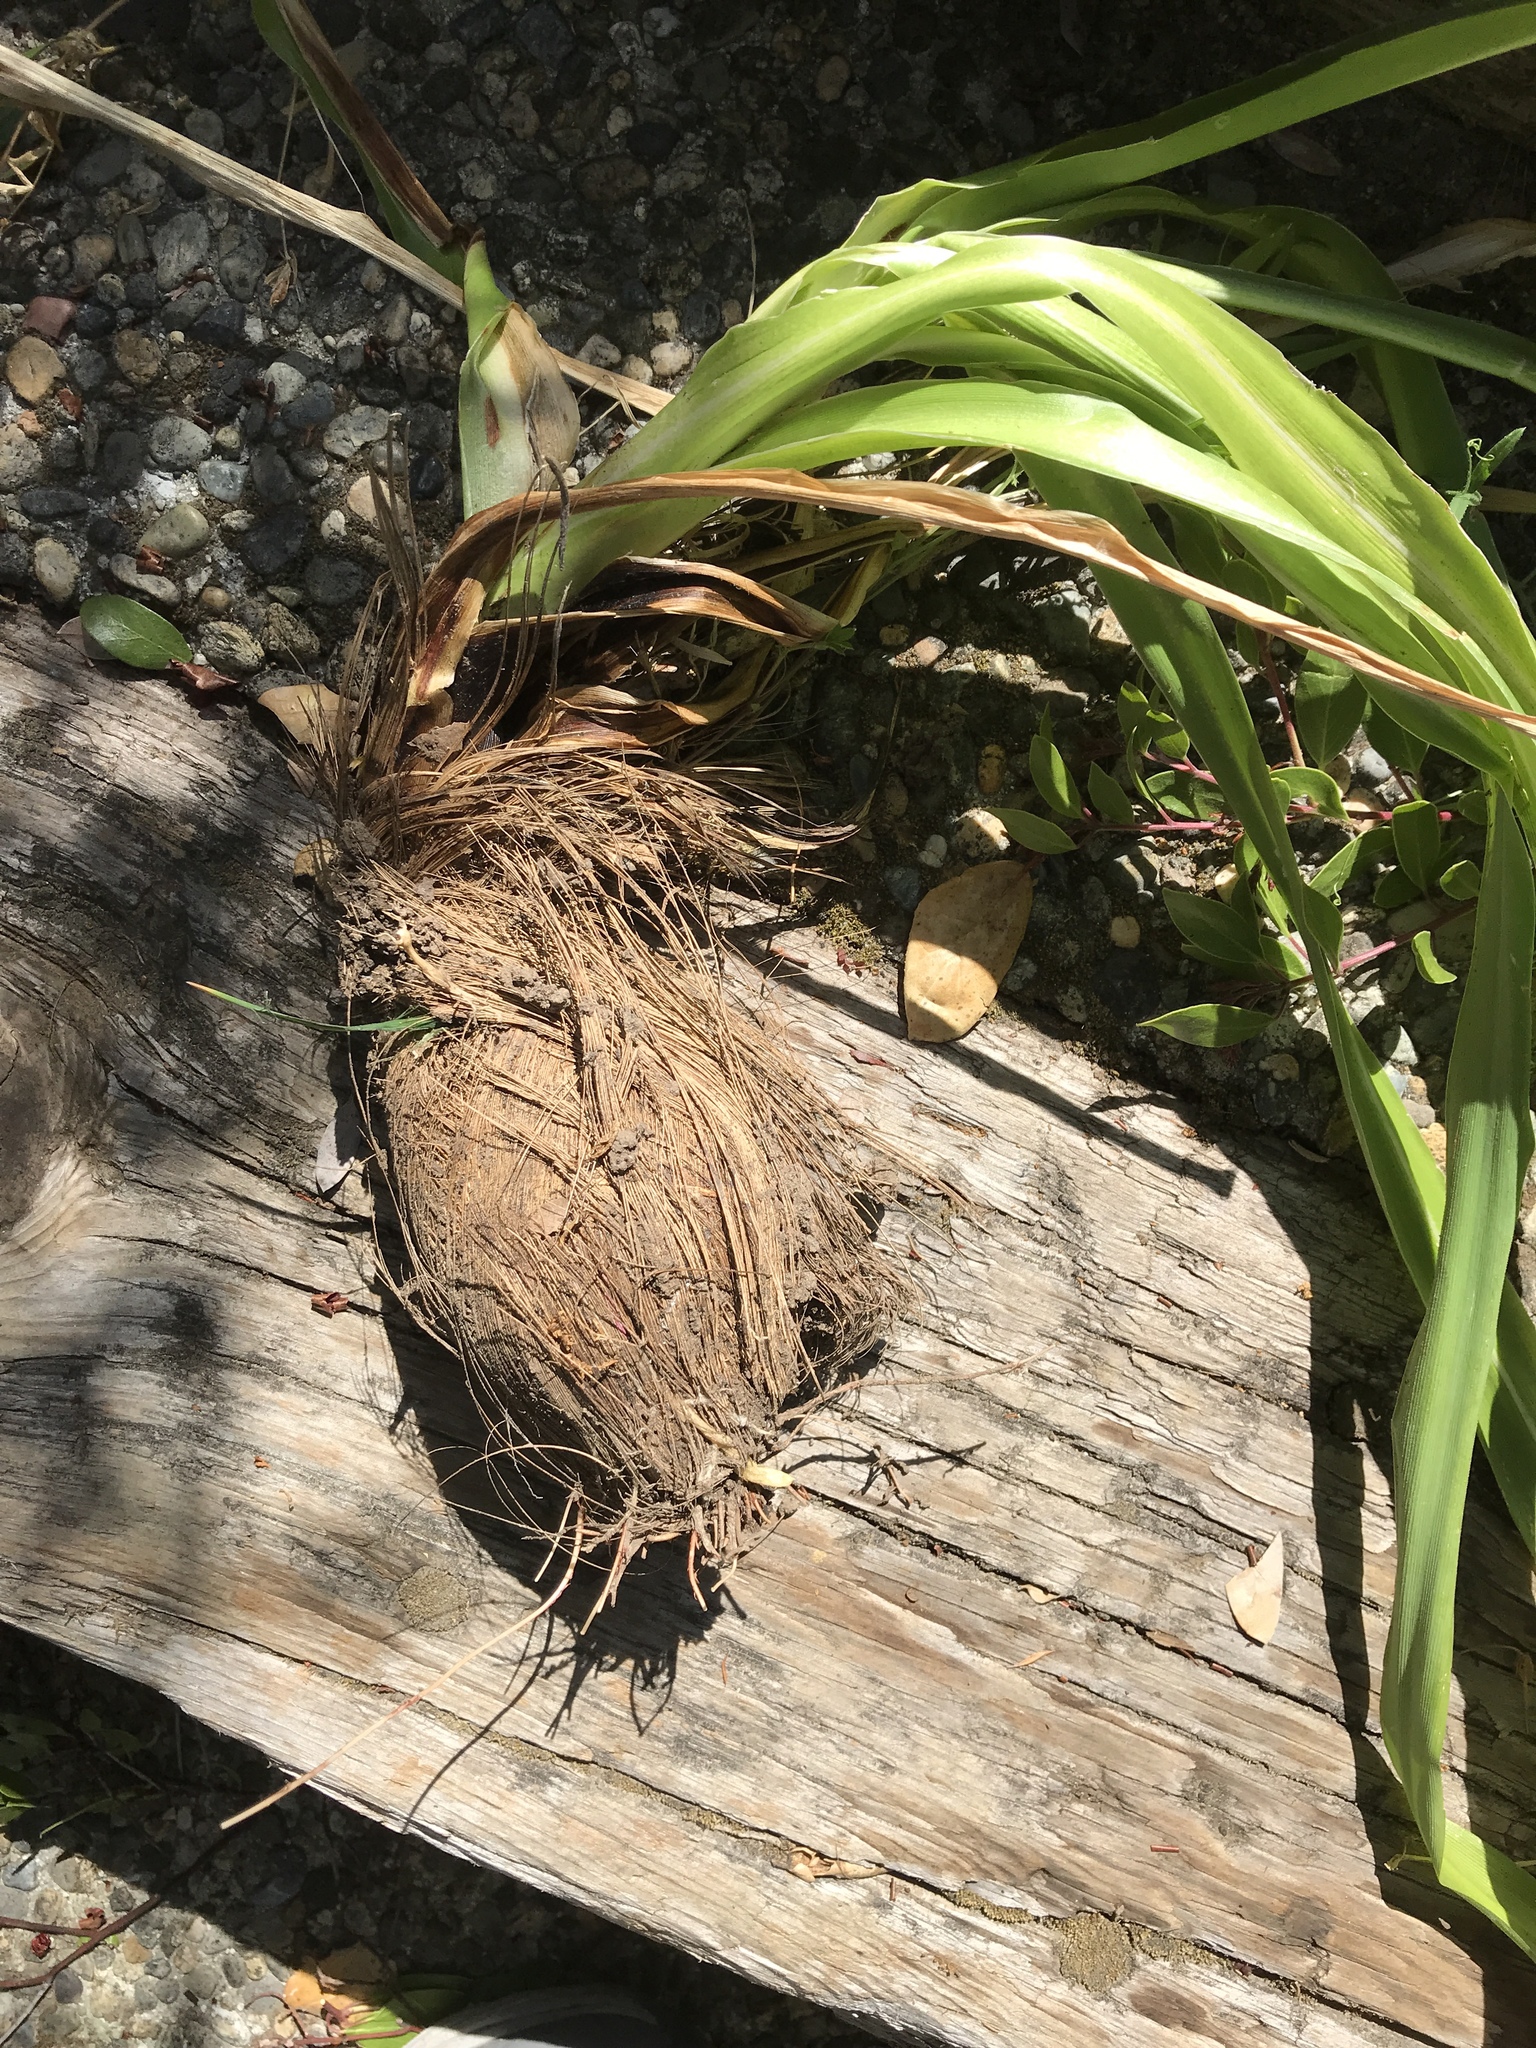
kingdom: Plantae
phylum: Tracheophyta
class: Liliopsida
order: Asparagales
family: Asparagaceae
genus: Chlorogalum
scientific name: Chlorogalum pomeridianum
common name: Amole
